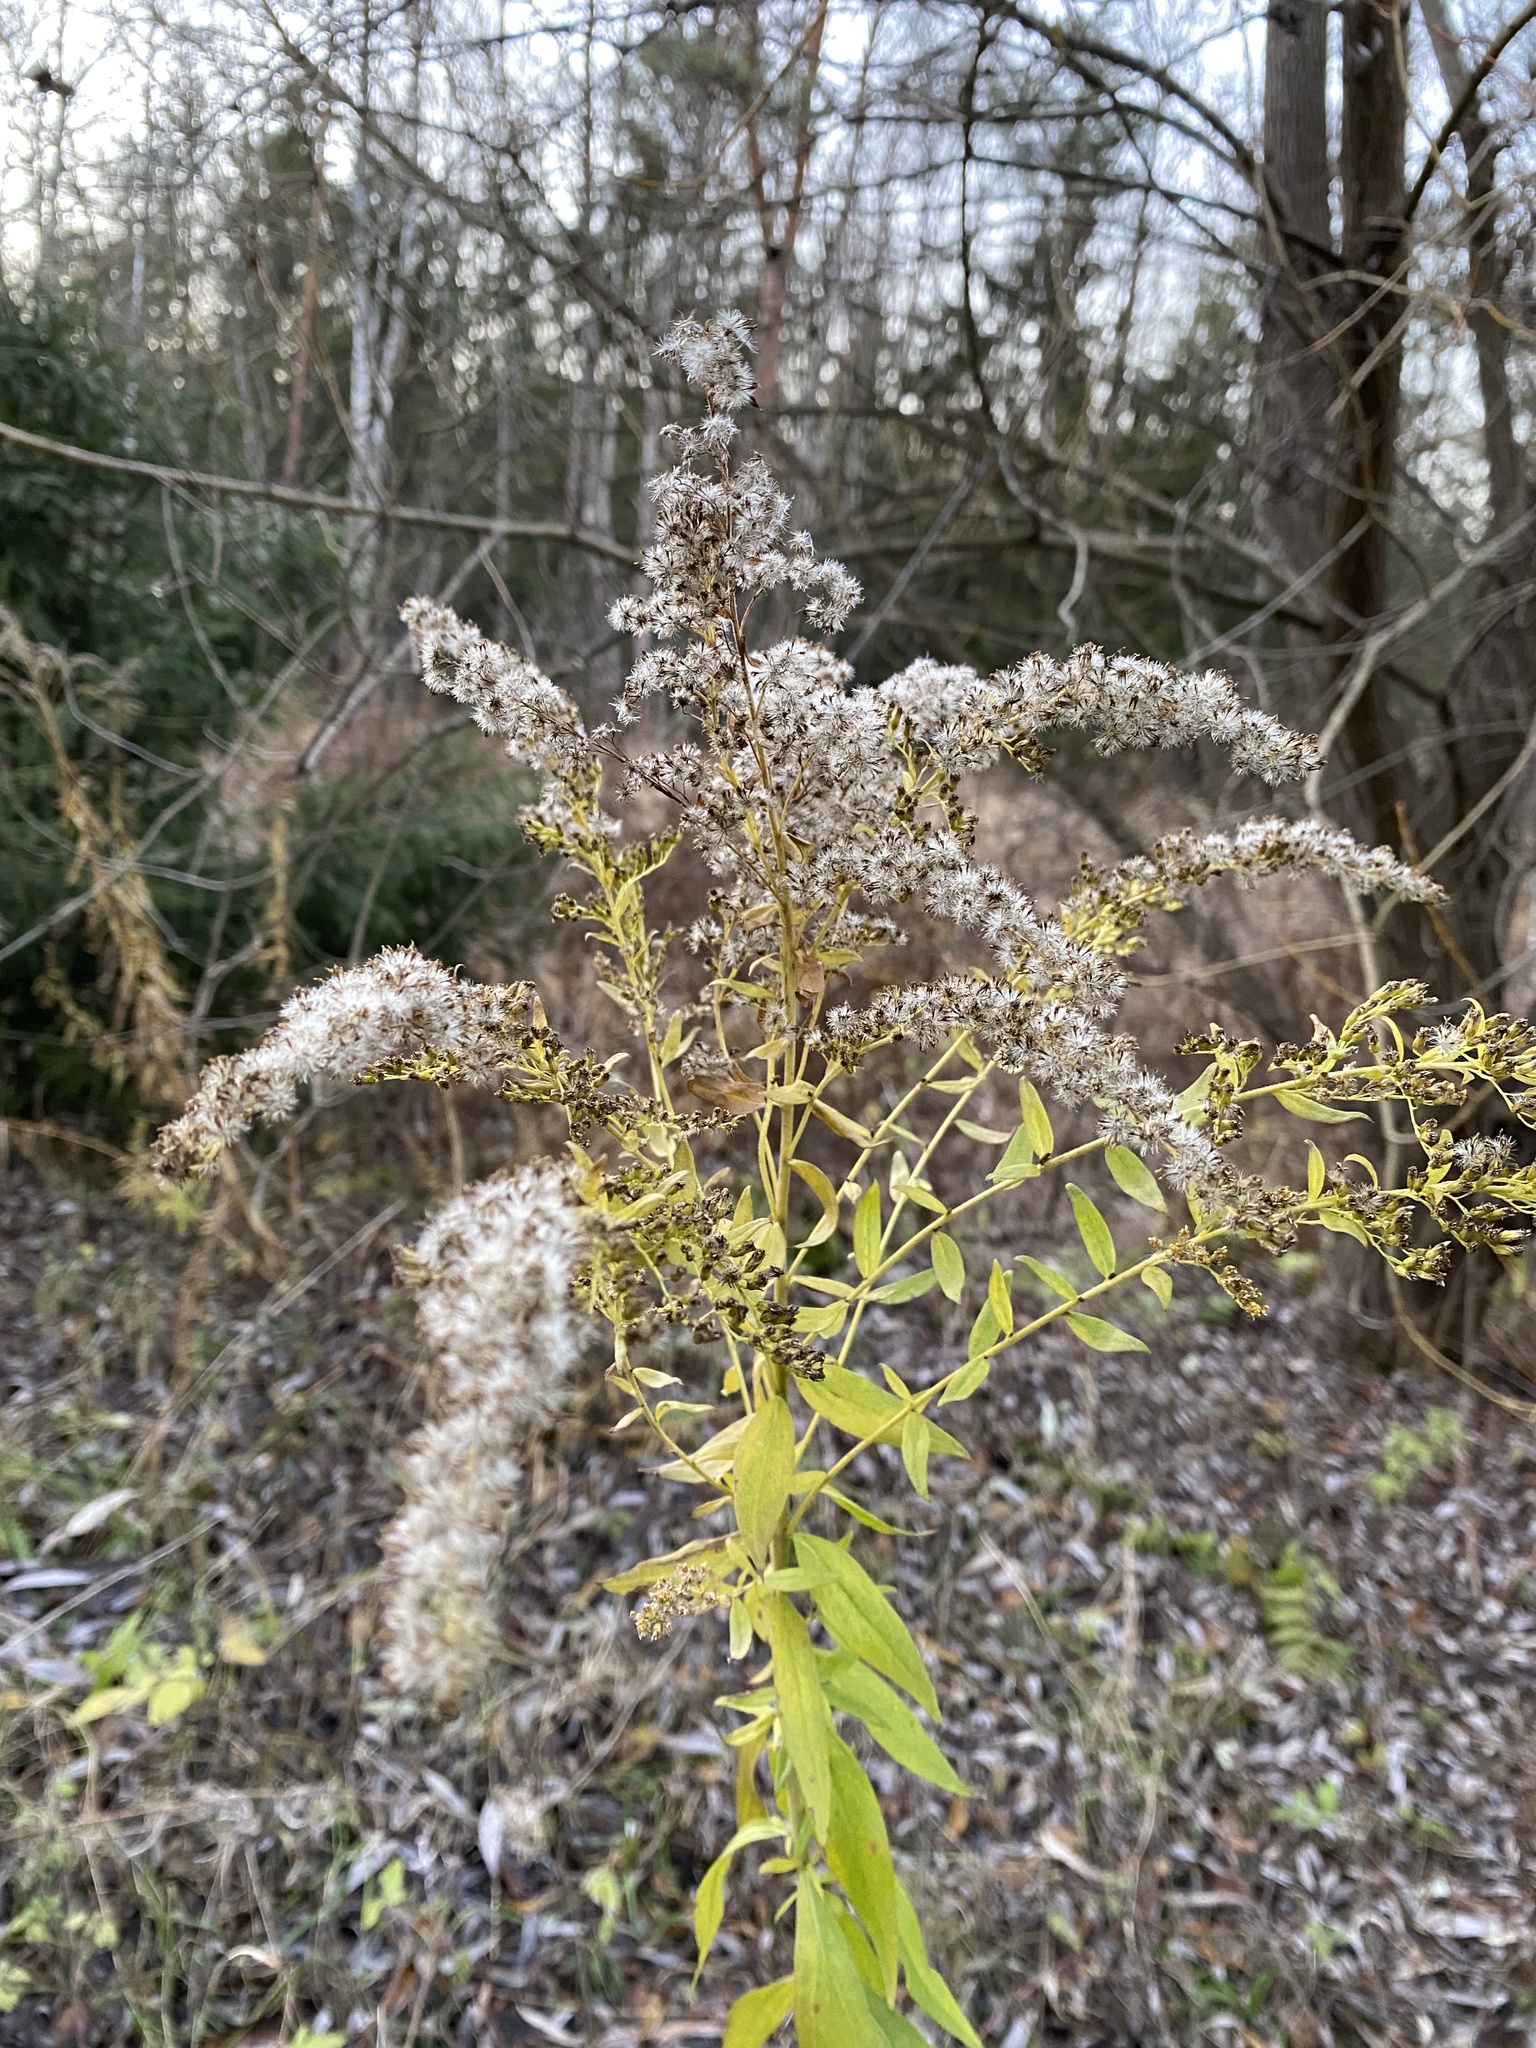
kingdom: Plantae
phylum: Tracheophyta
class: Magnoliopsida
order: Asterales
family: Asteraceae
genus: Solidago
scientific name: Solidago canadensis
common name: Canada goldenrod
